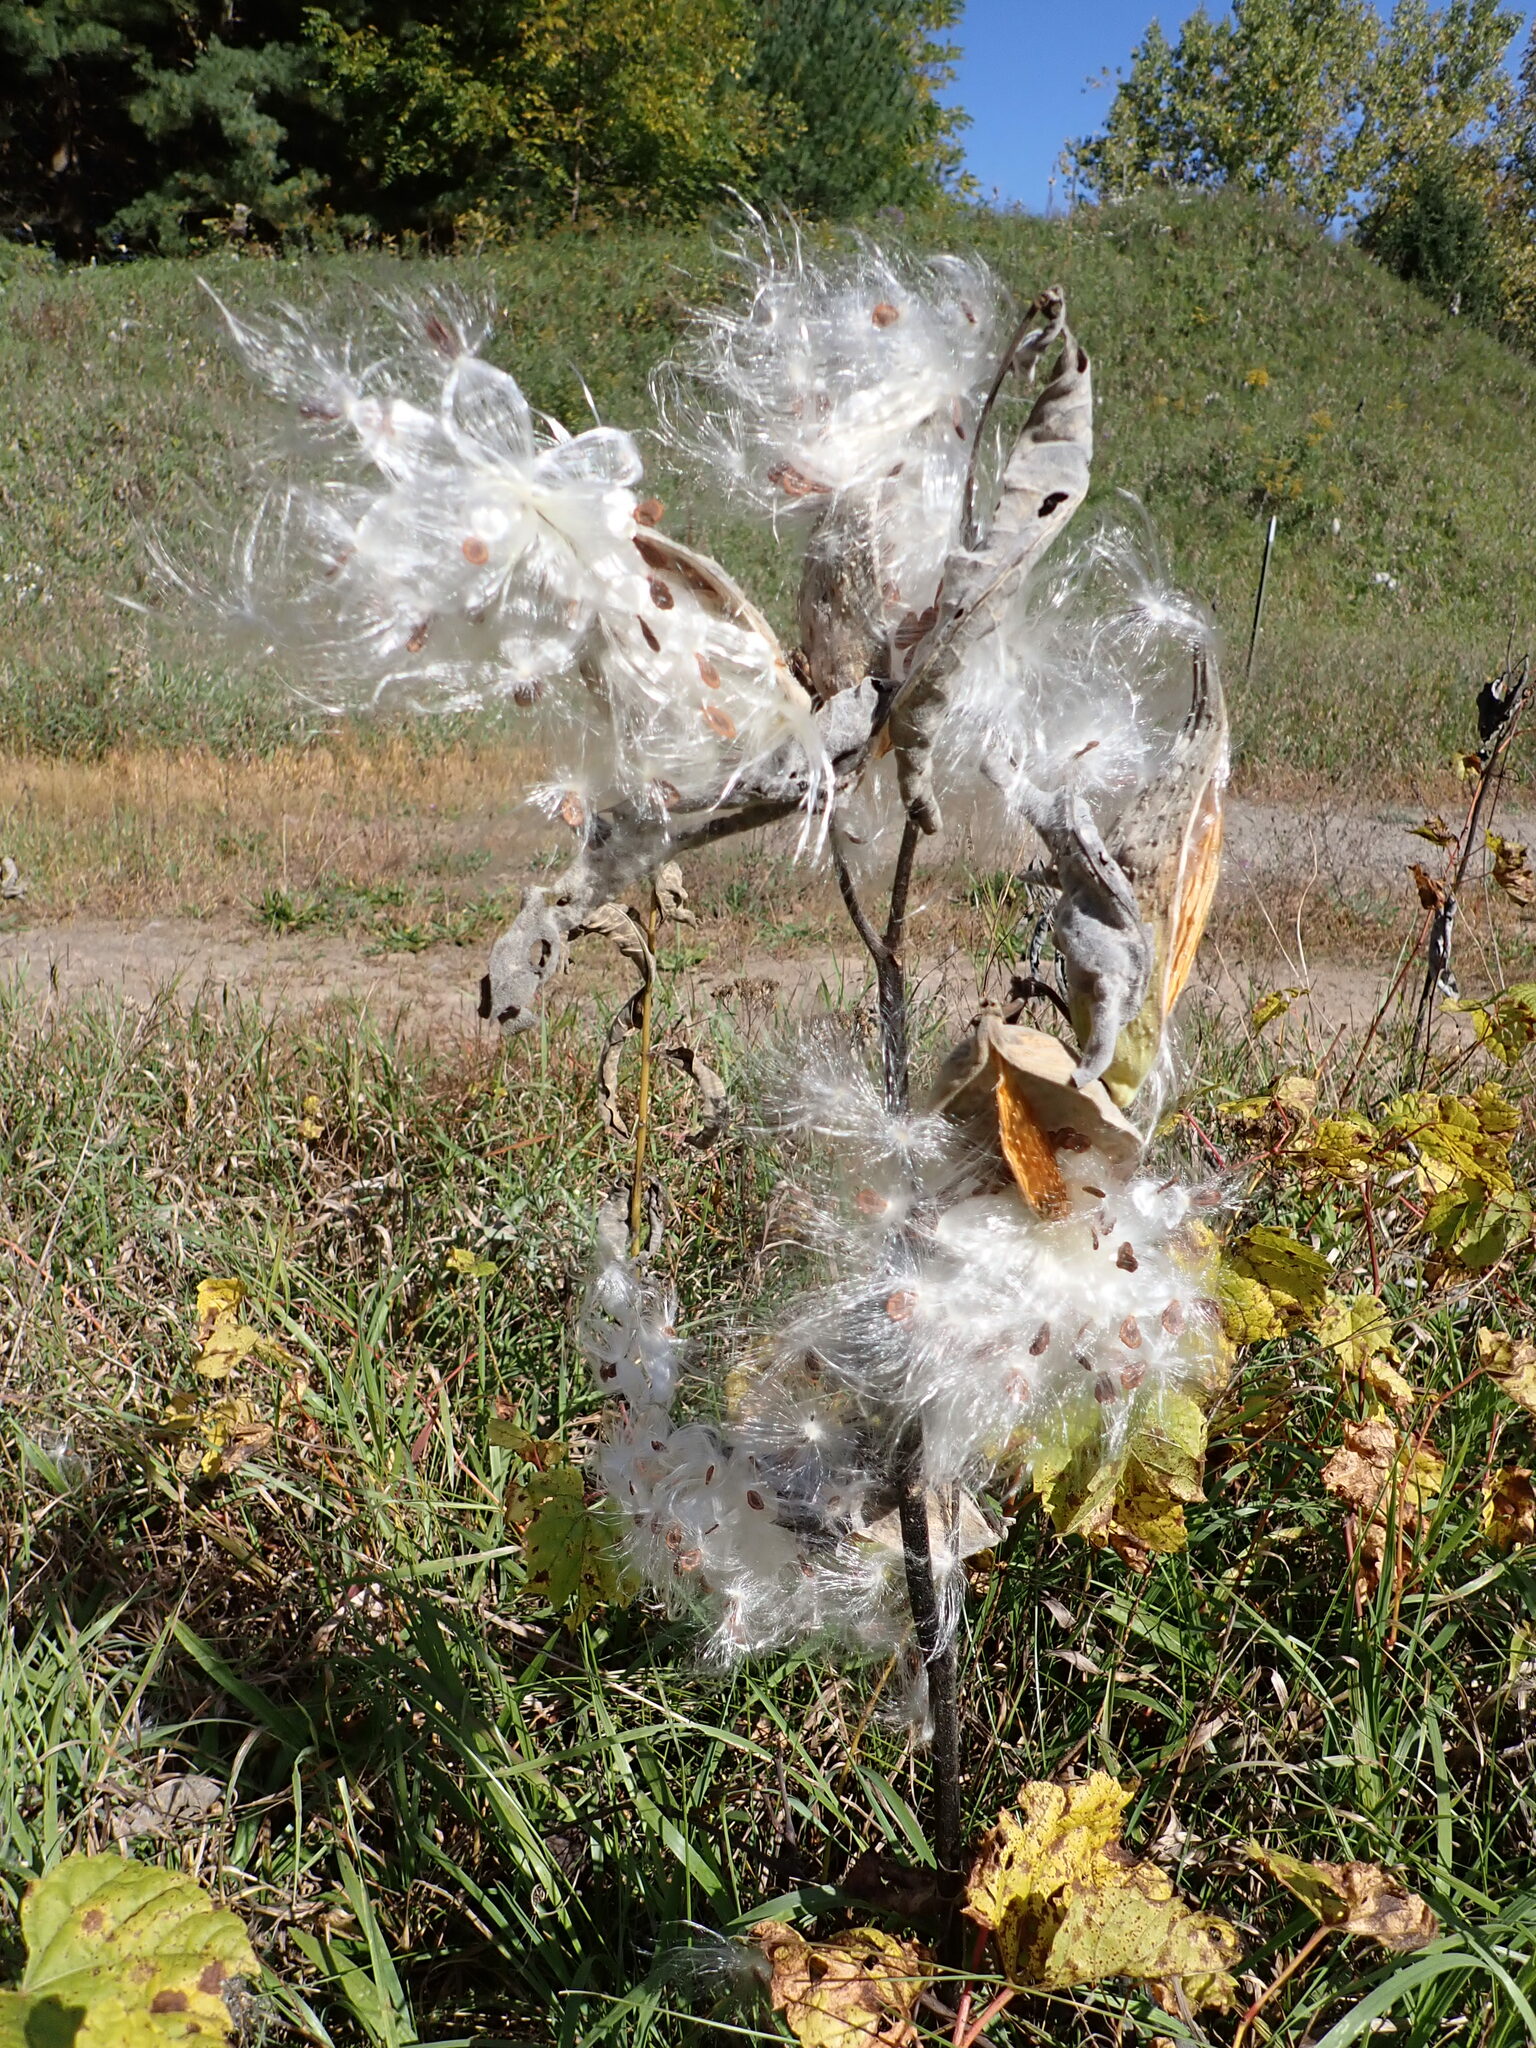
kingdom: Plantae
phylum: Tracheophyta
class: Magnoliopsida
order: Gentianales
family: Apocynaceae
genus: Asclepias
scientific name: Asclepias syriaca
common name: Common milkweed
